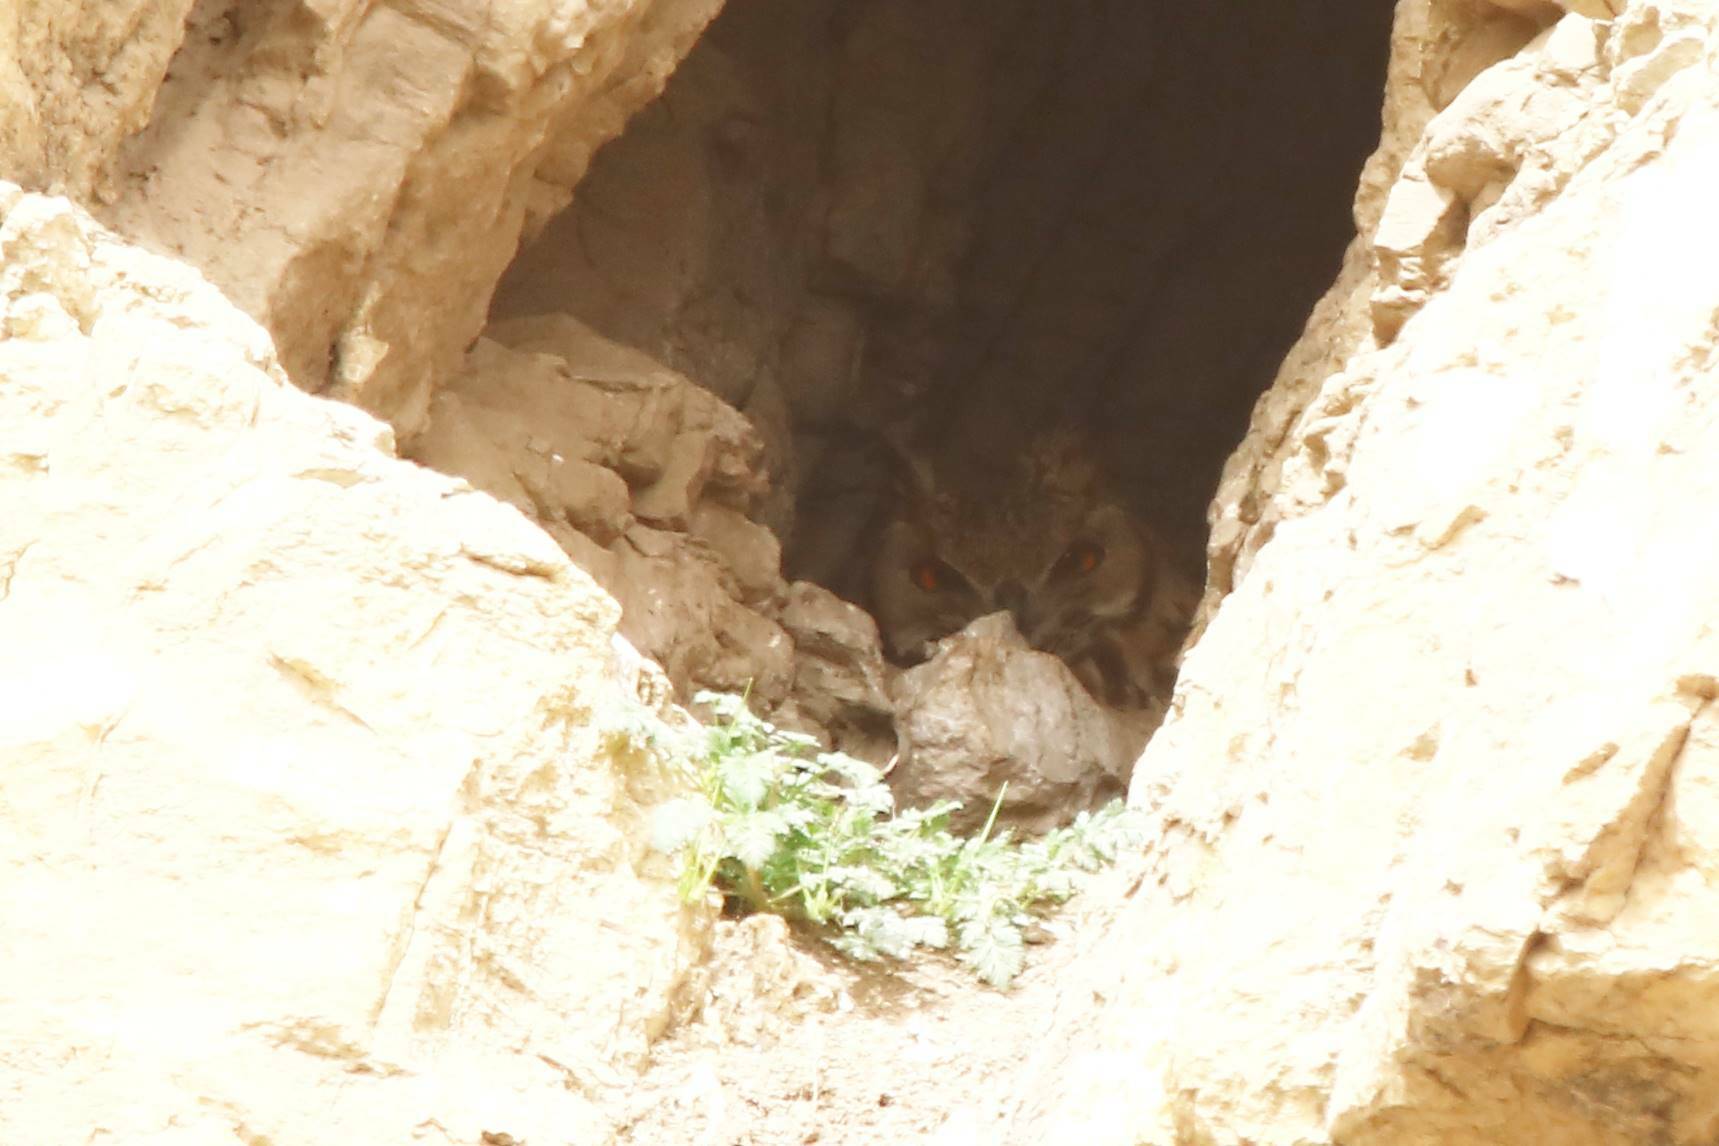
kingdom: Animalia
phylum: Chordata
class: Aves
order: Strigiformes
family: Strigidae
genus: Bubo
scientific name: Bubo ascalaphus
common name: Pharaoh eagle-owl
